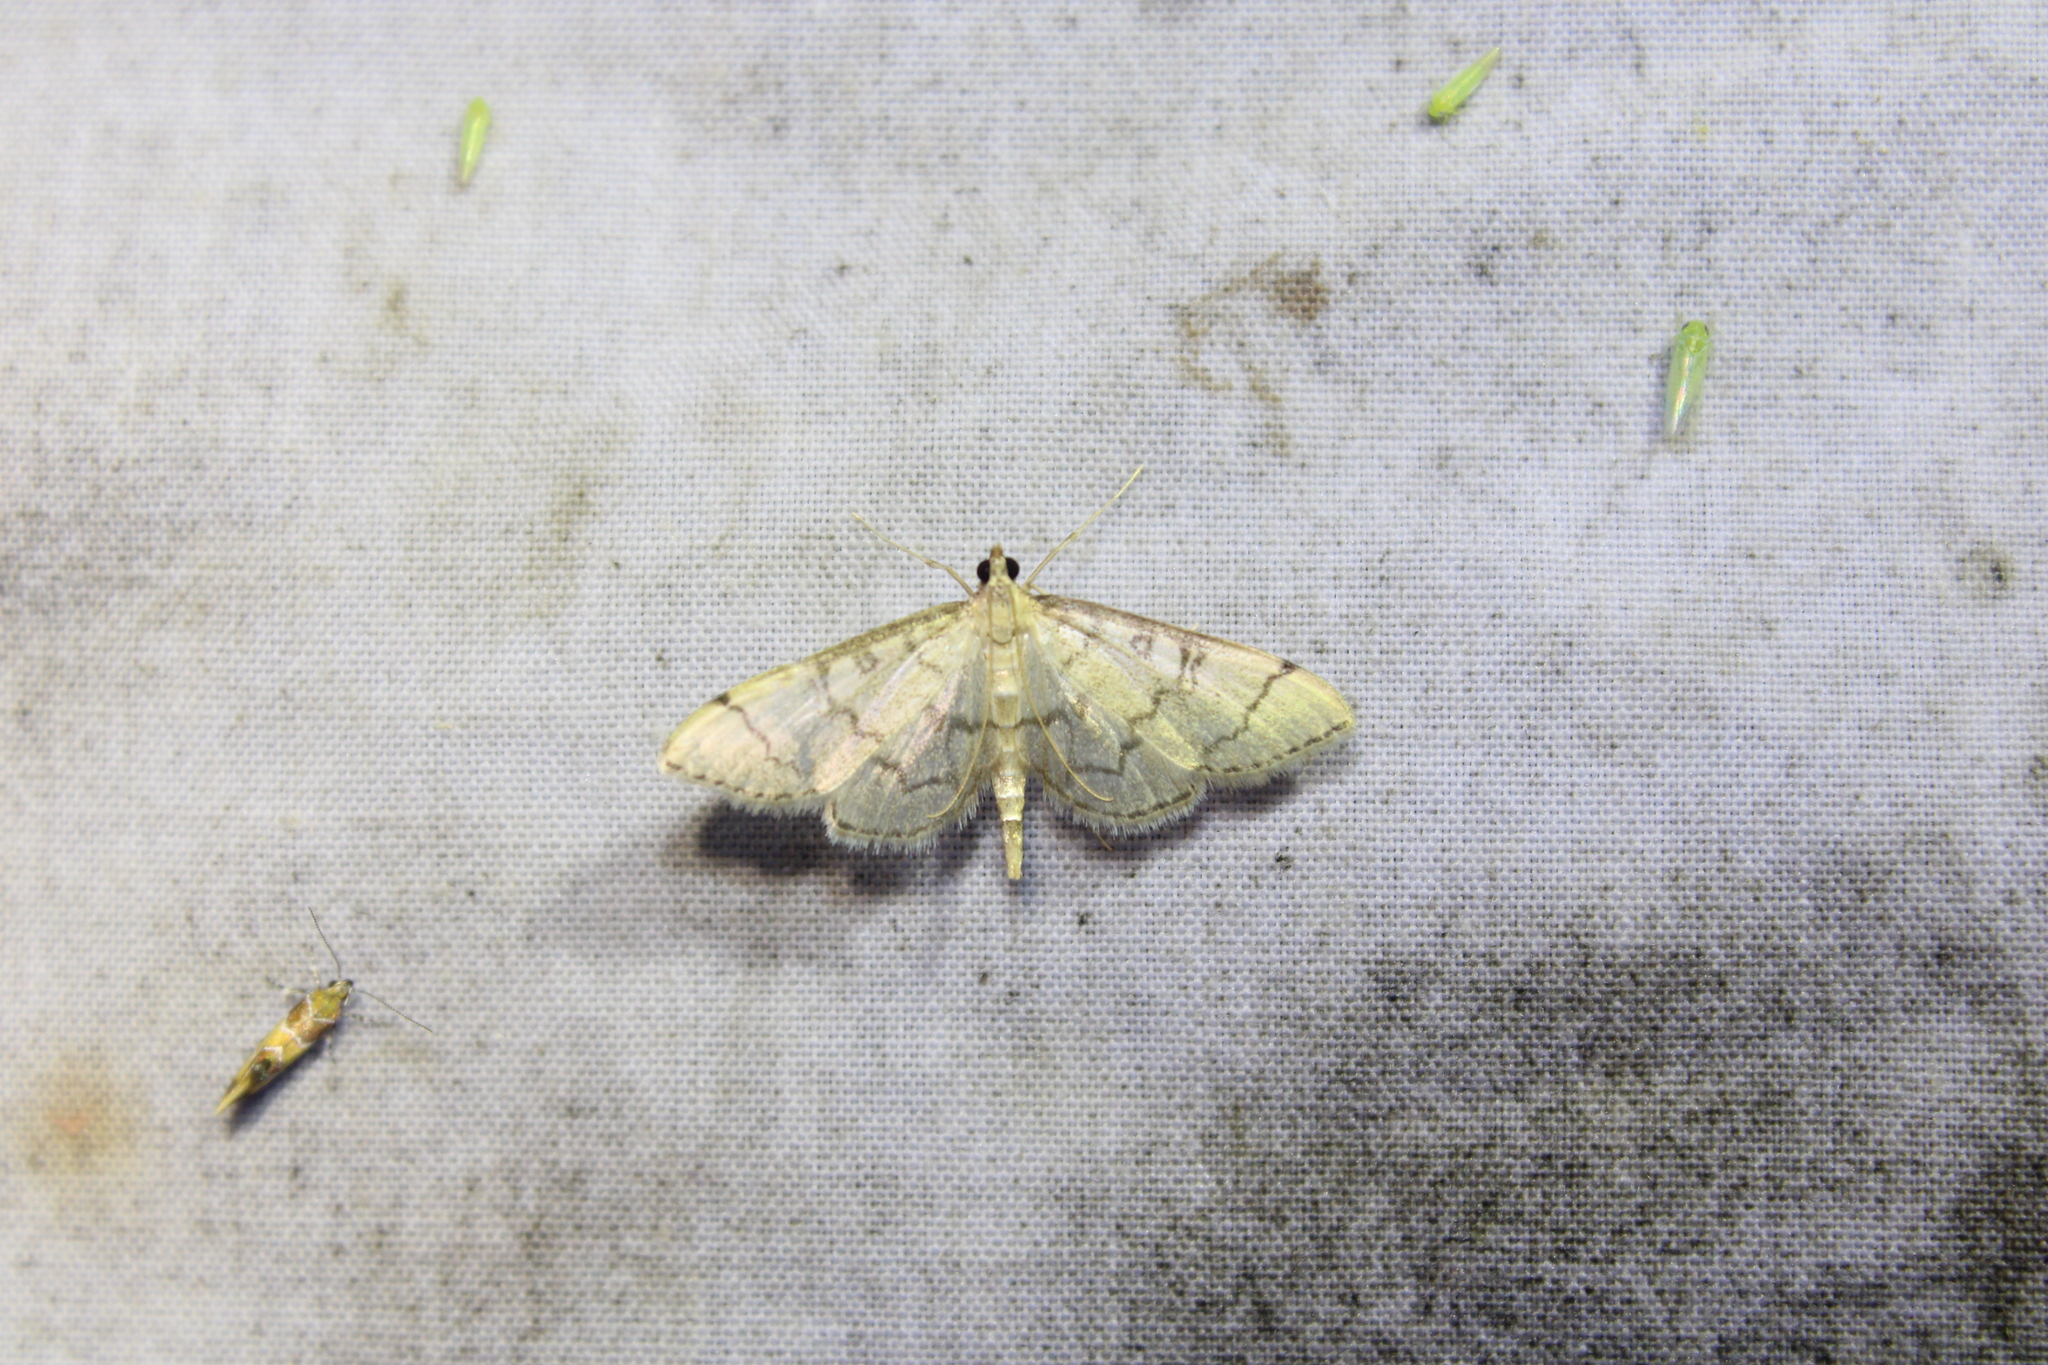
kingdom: Animalia
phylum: Arthropoda
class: Insecta
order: Lepidoptera
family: Crambidae
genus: Lamprosema
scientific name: Lamprosema Blepharomastix ranalis
